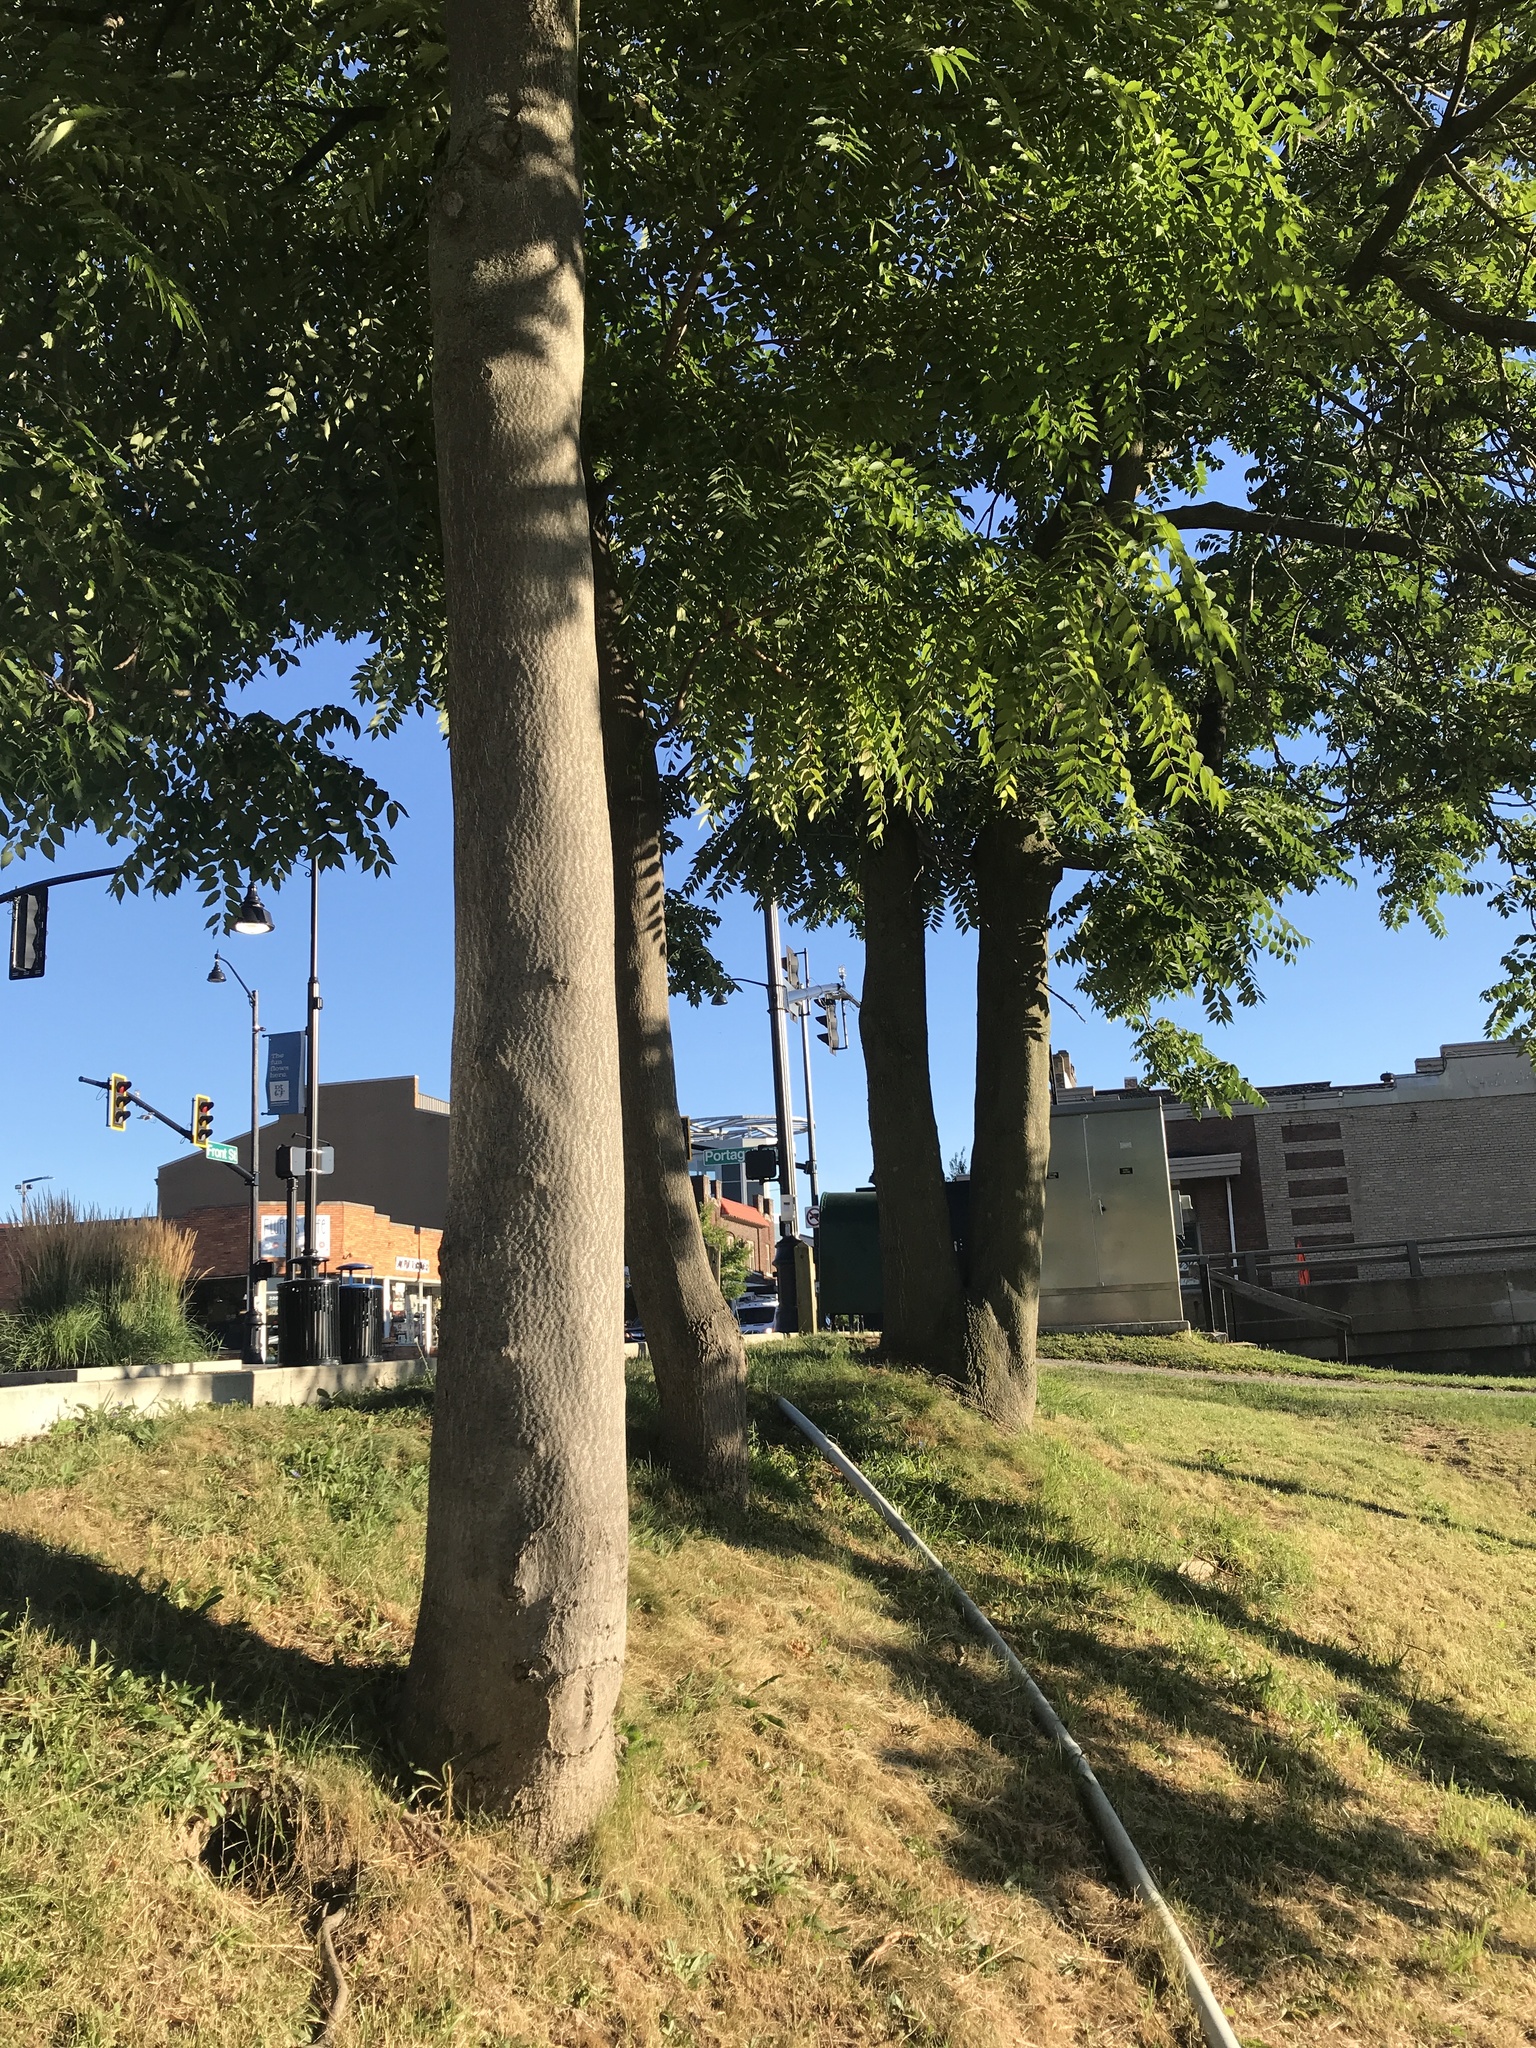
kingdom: Plantae
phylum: Tracheophyta
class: Magnoliopsida
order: Sapindales
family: Simaroubaceae
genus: Ailanthus
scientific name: Ailanthus altissima
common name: Tree-of-heaven
